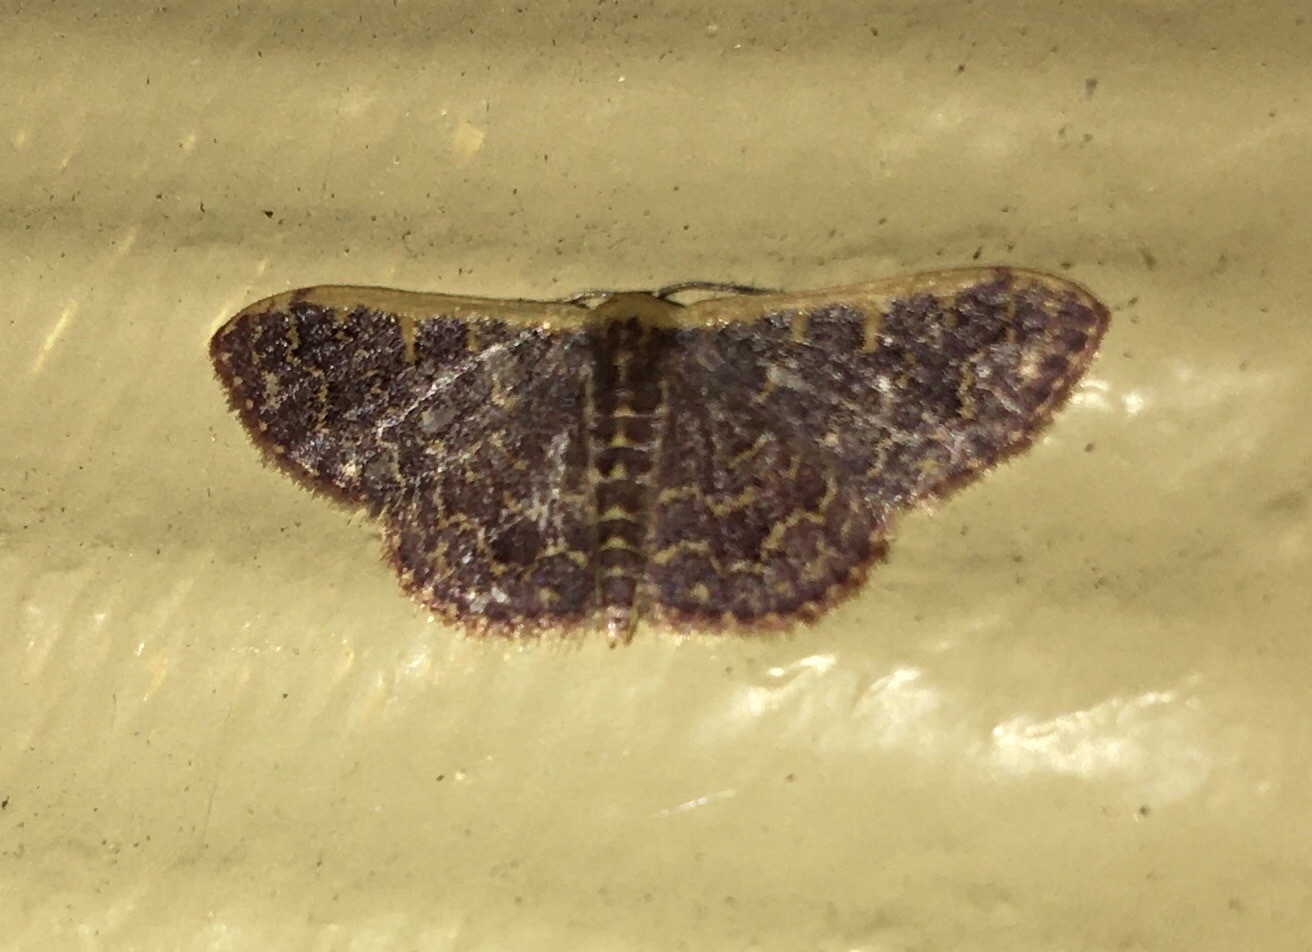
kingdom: Animalia
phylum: Arthropoda
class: Insecta
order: Lepidoptera
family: Geometridae
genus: Leptostales
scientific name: Leptostales crossii
